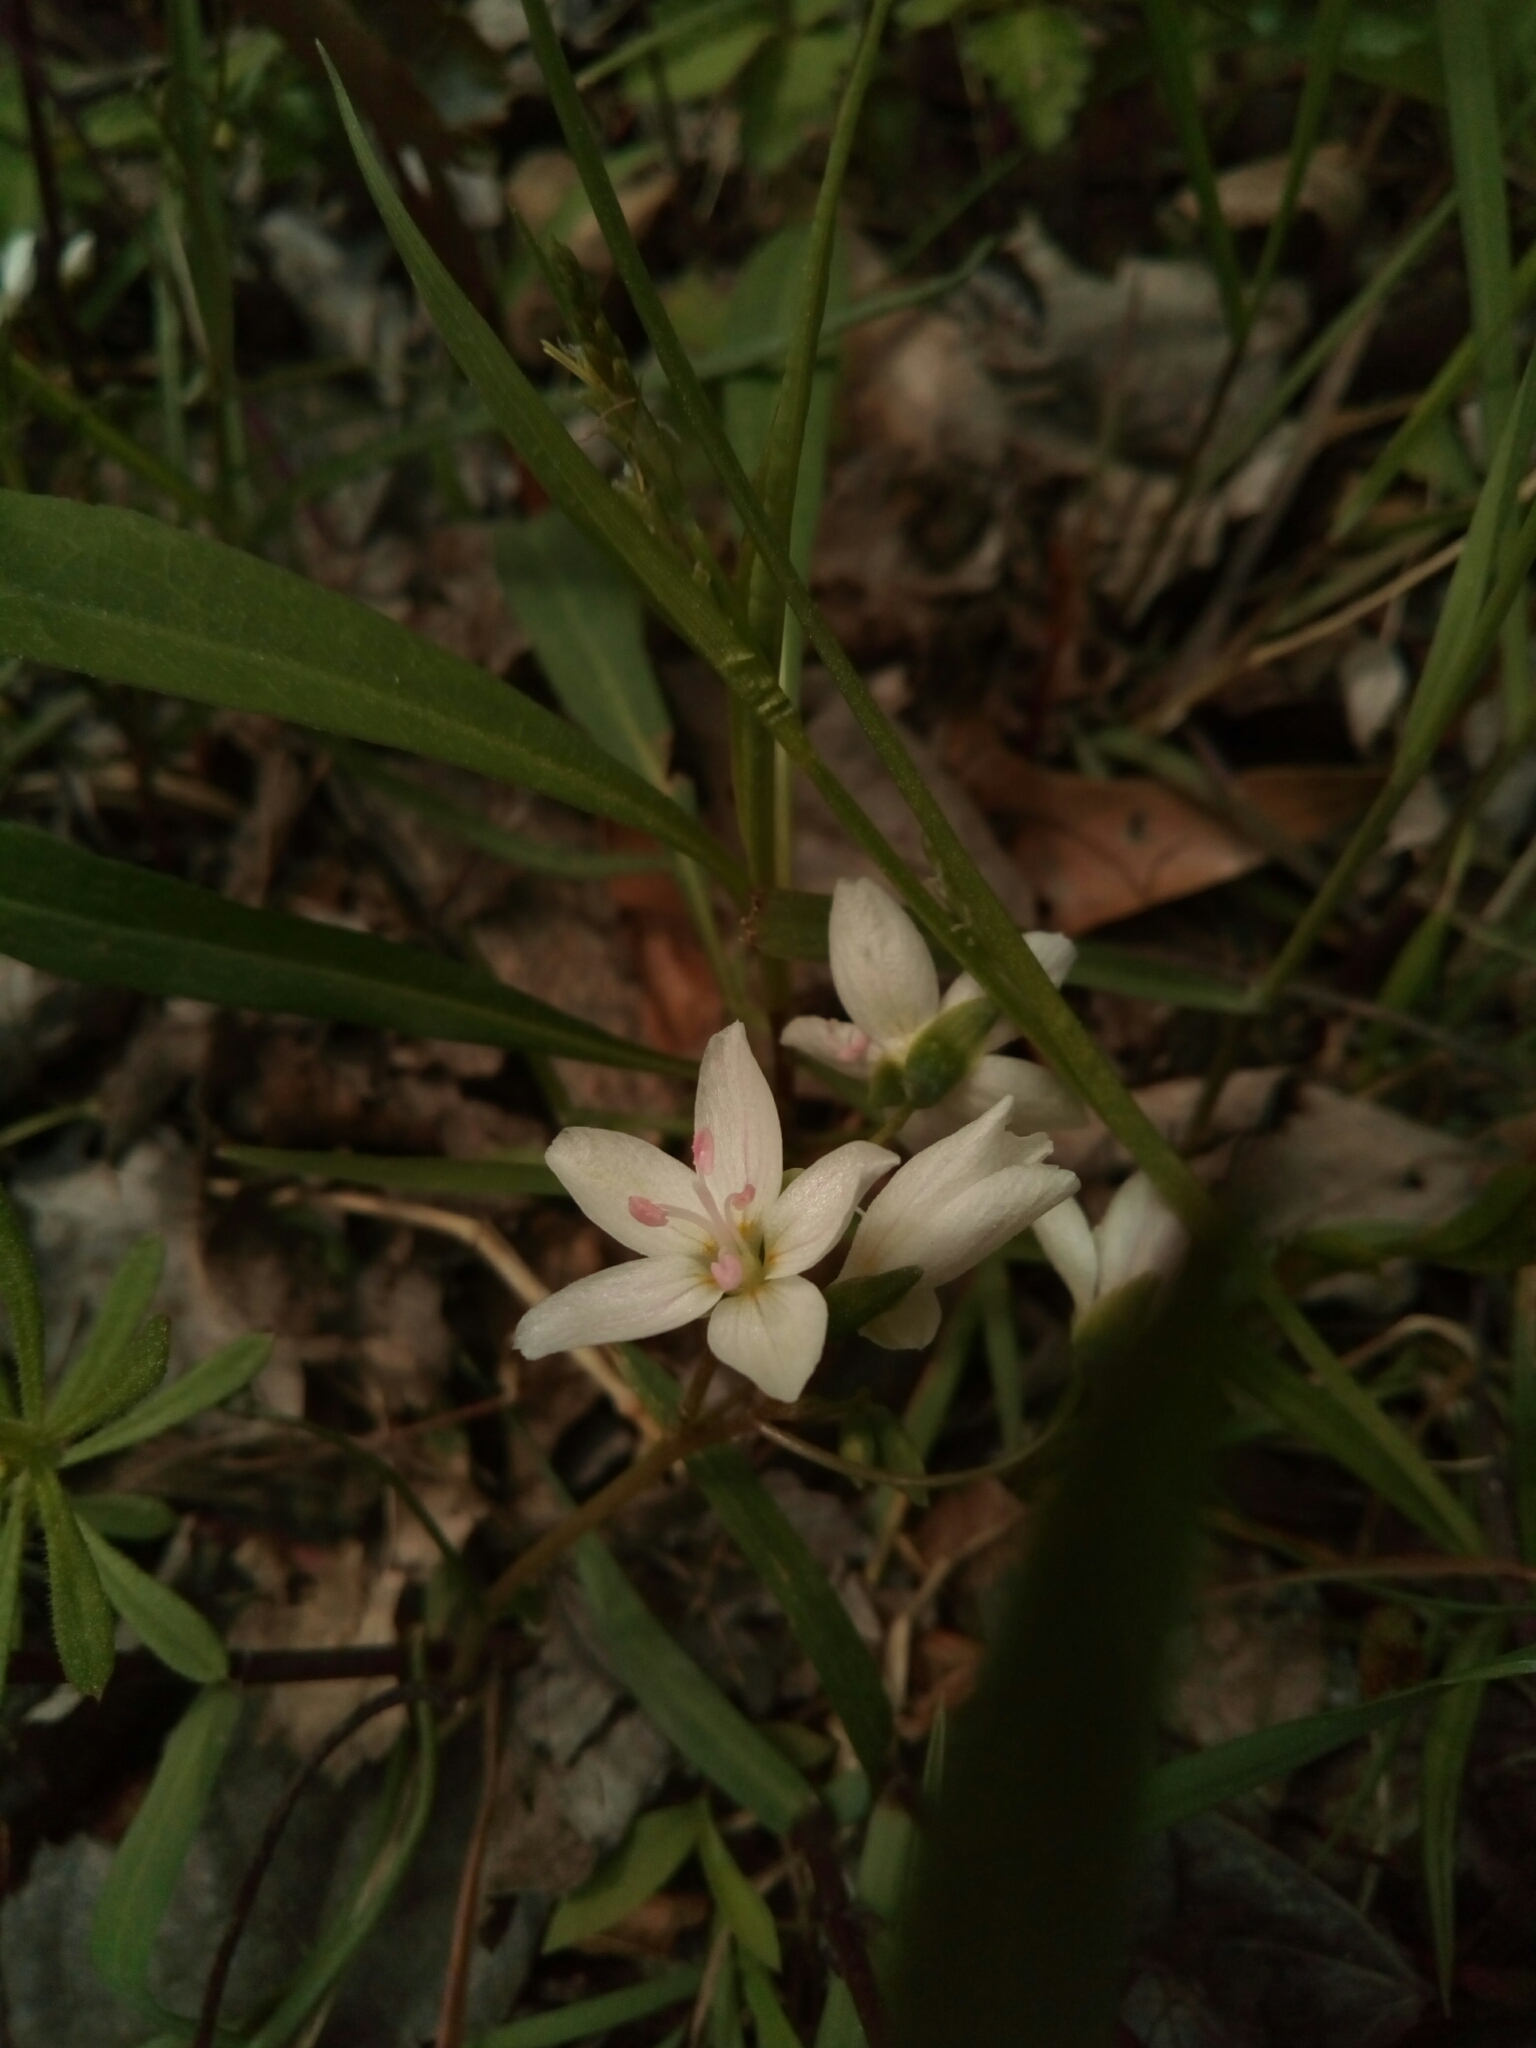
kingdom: Plantae
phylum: Tracheophyta
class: Magnoliopsida
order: Caryophyllales
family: Montiaceae
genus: Claytonia
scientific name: Claytonia virginica
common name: Virginia springbeauty
